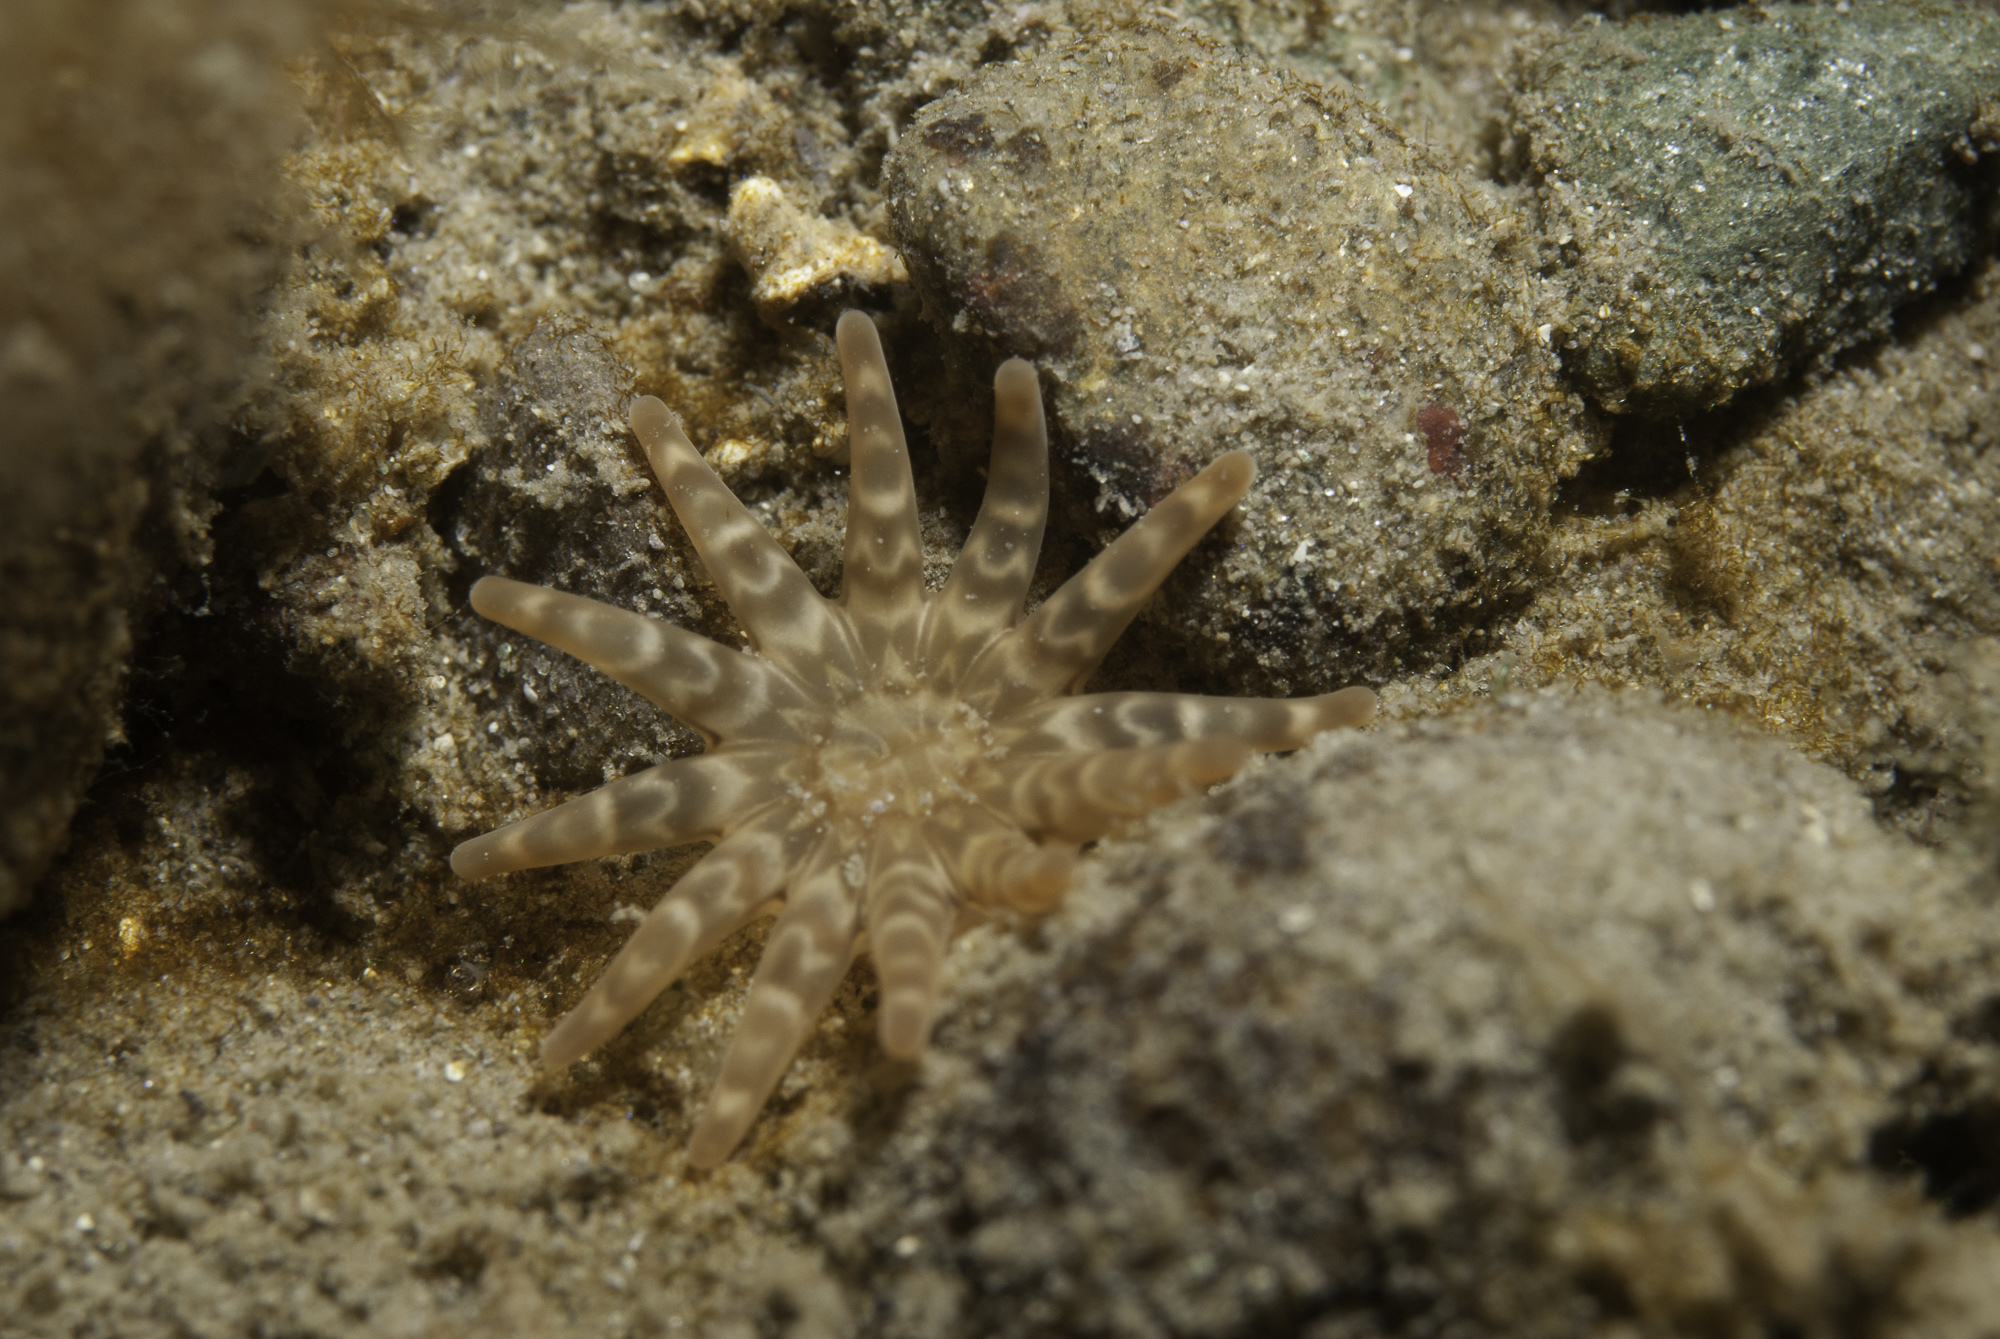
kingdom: Animalia
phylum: Cnidaria
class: Anthozoa
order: Actiniaria
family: Halcampidae
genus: Halcampa
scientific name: Halcampa chrysanthellum
